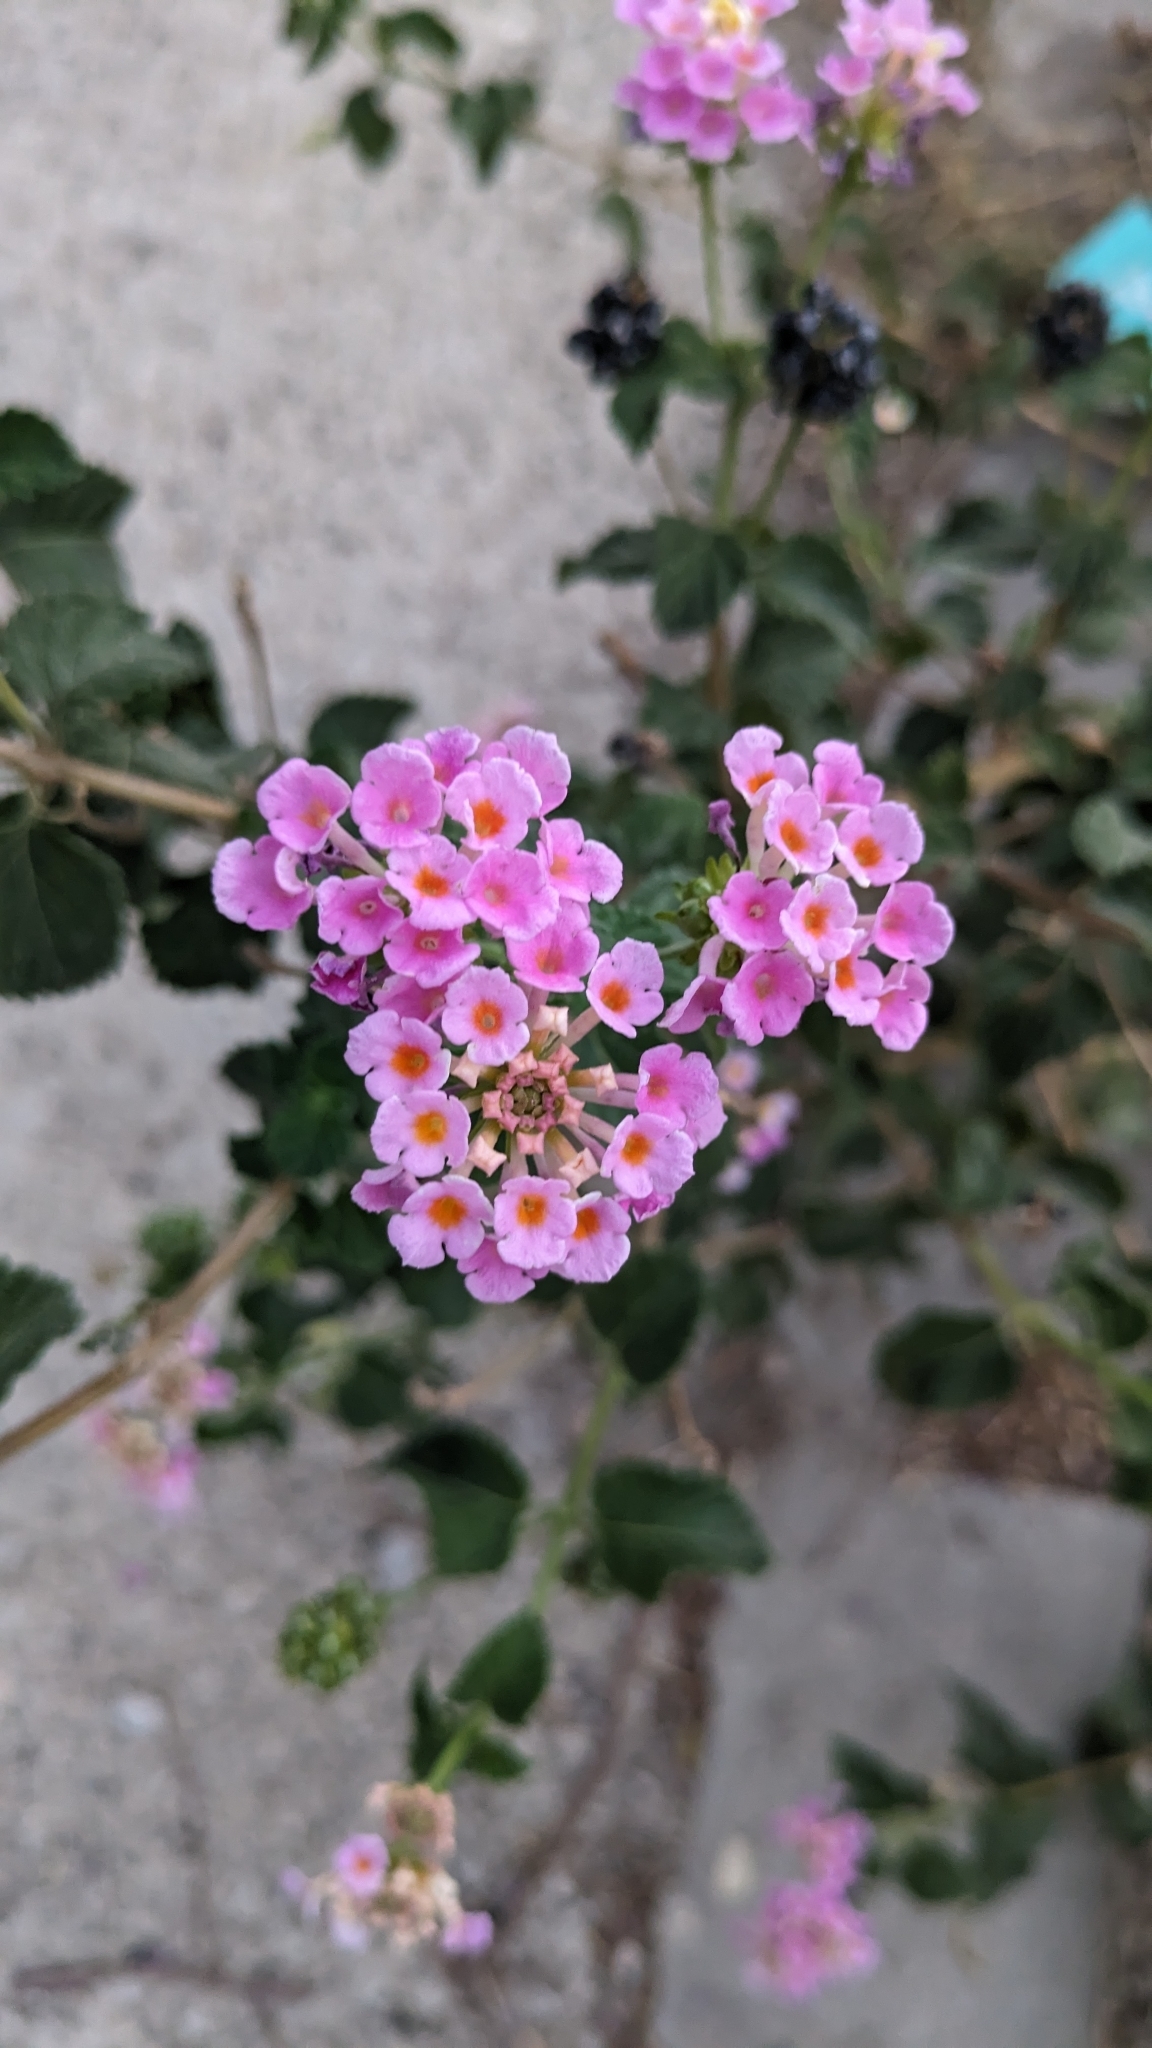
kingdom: Plantae
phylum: Tracheophyta
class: Magnoliopsida
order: Lamiales
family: Verbenaceae
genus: Lantana
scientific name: Lantana camara
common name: Lantana
